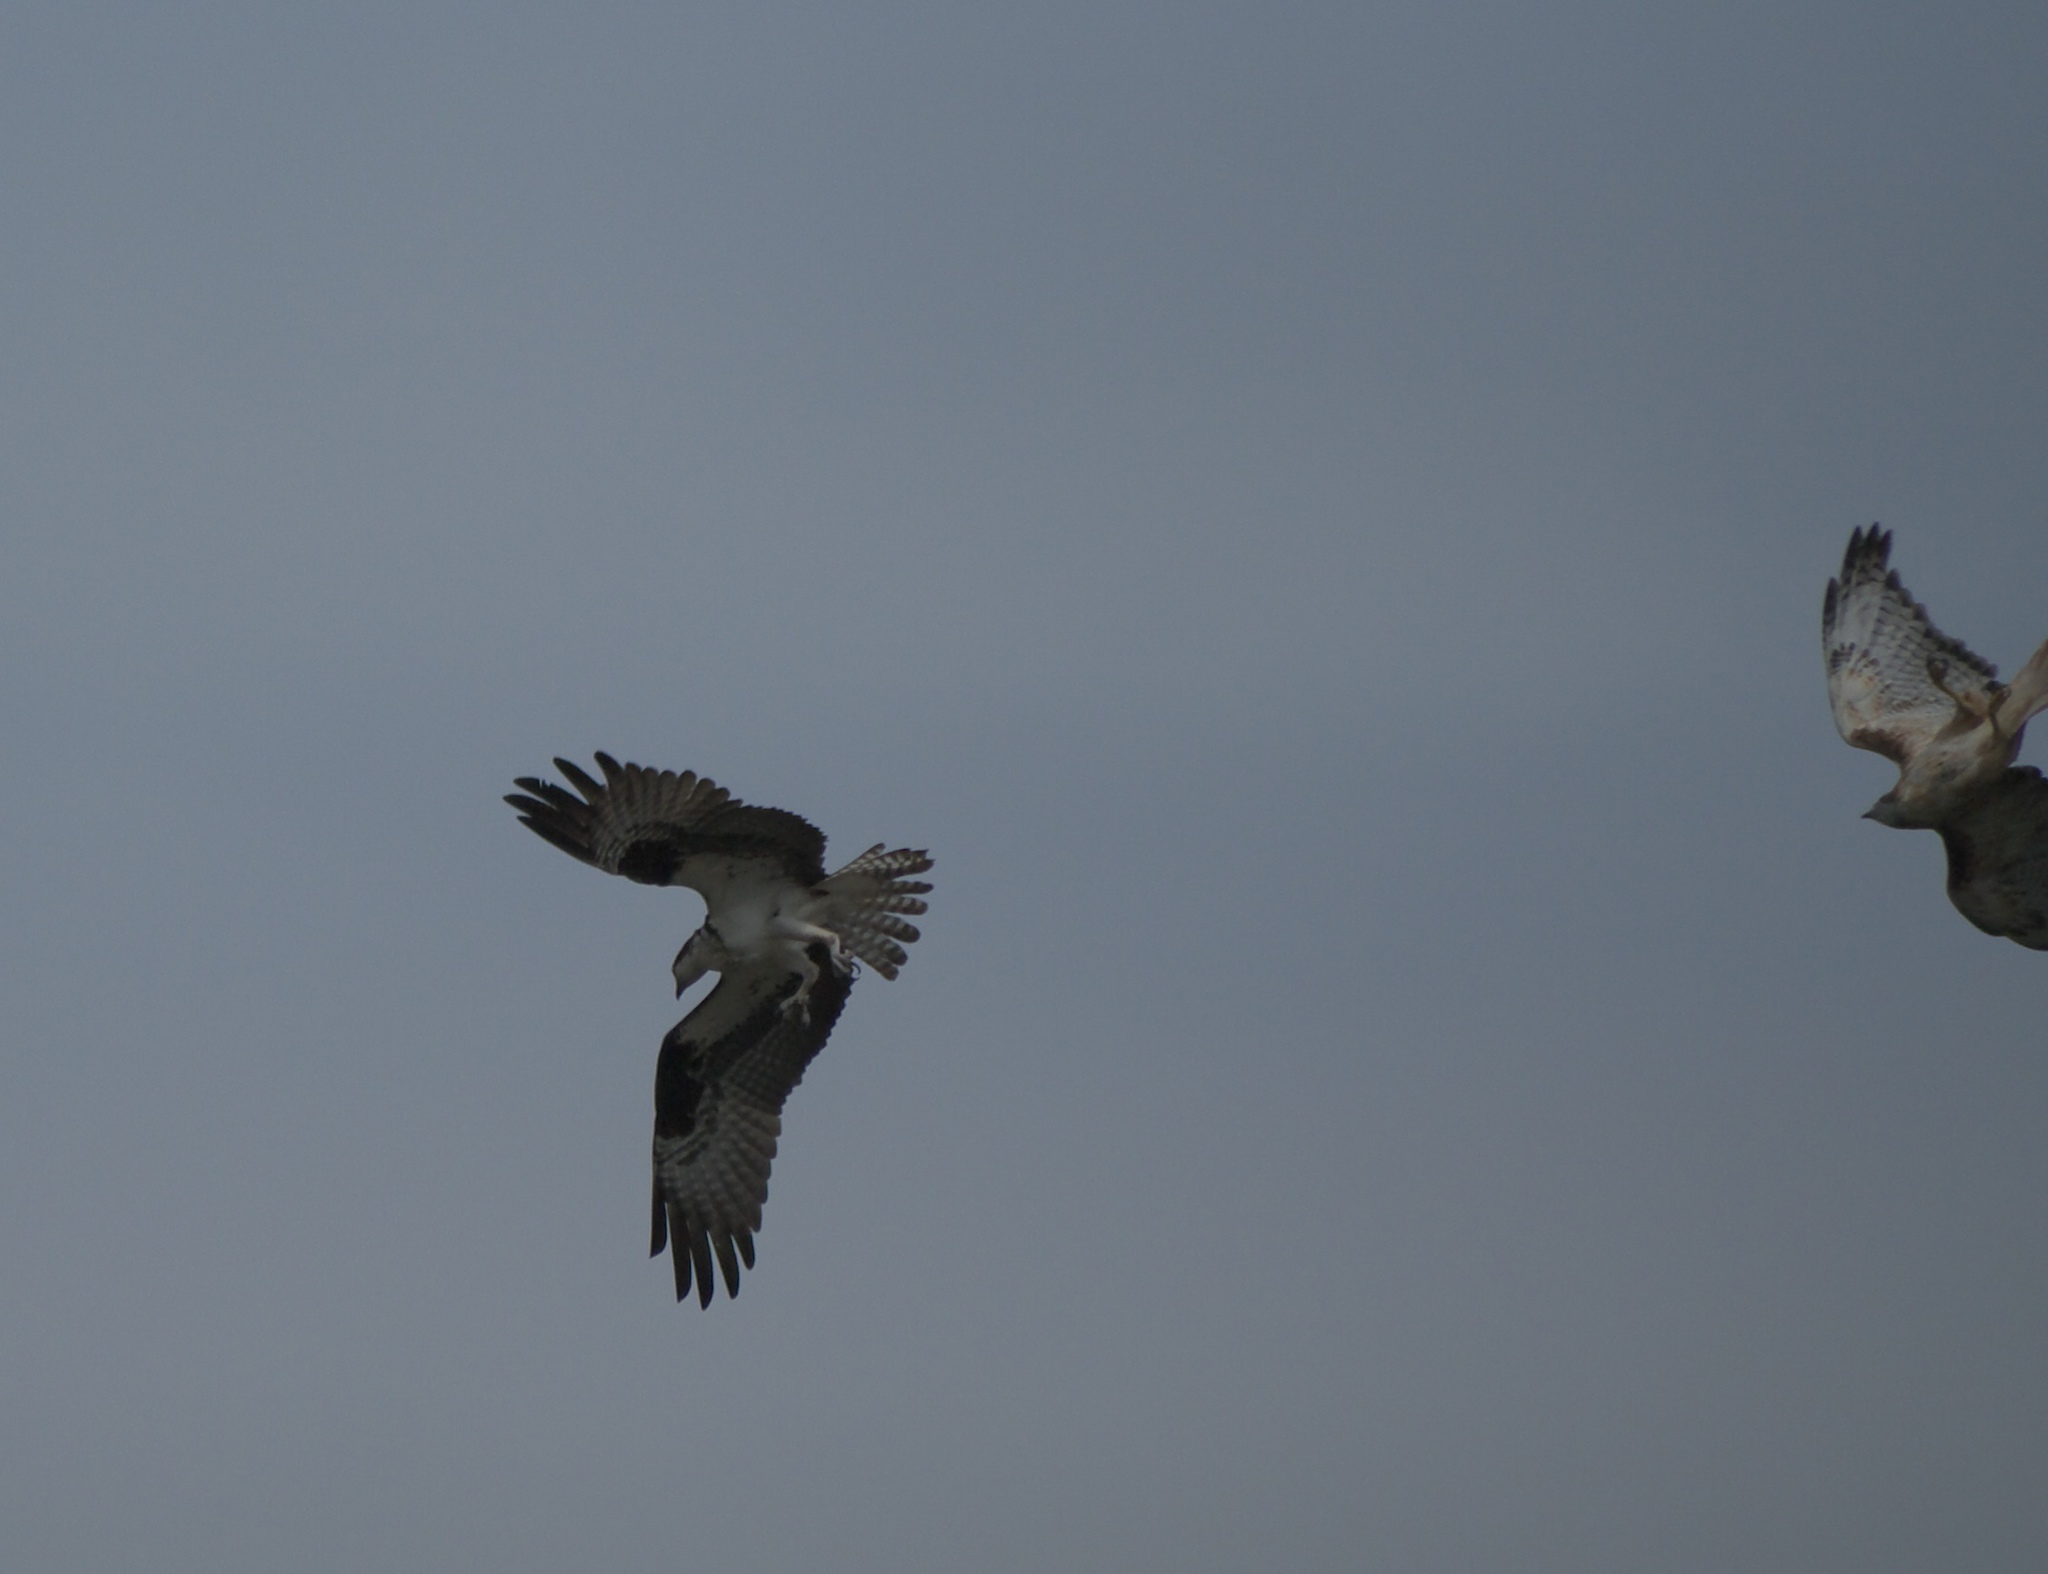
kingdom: Animalia
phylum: Chordata
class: Aves
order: Accipitriformes
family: Pandionidae
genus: Pandion
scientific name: Pandion haliaetus
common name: Osprey
